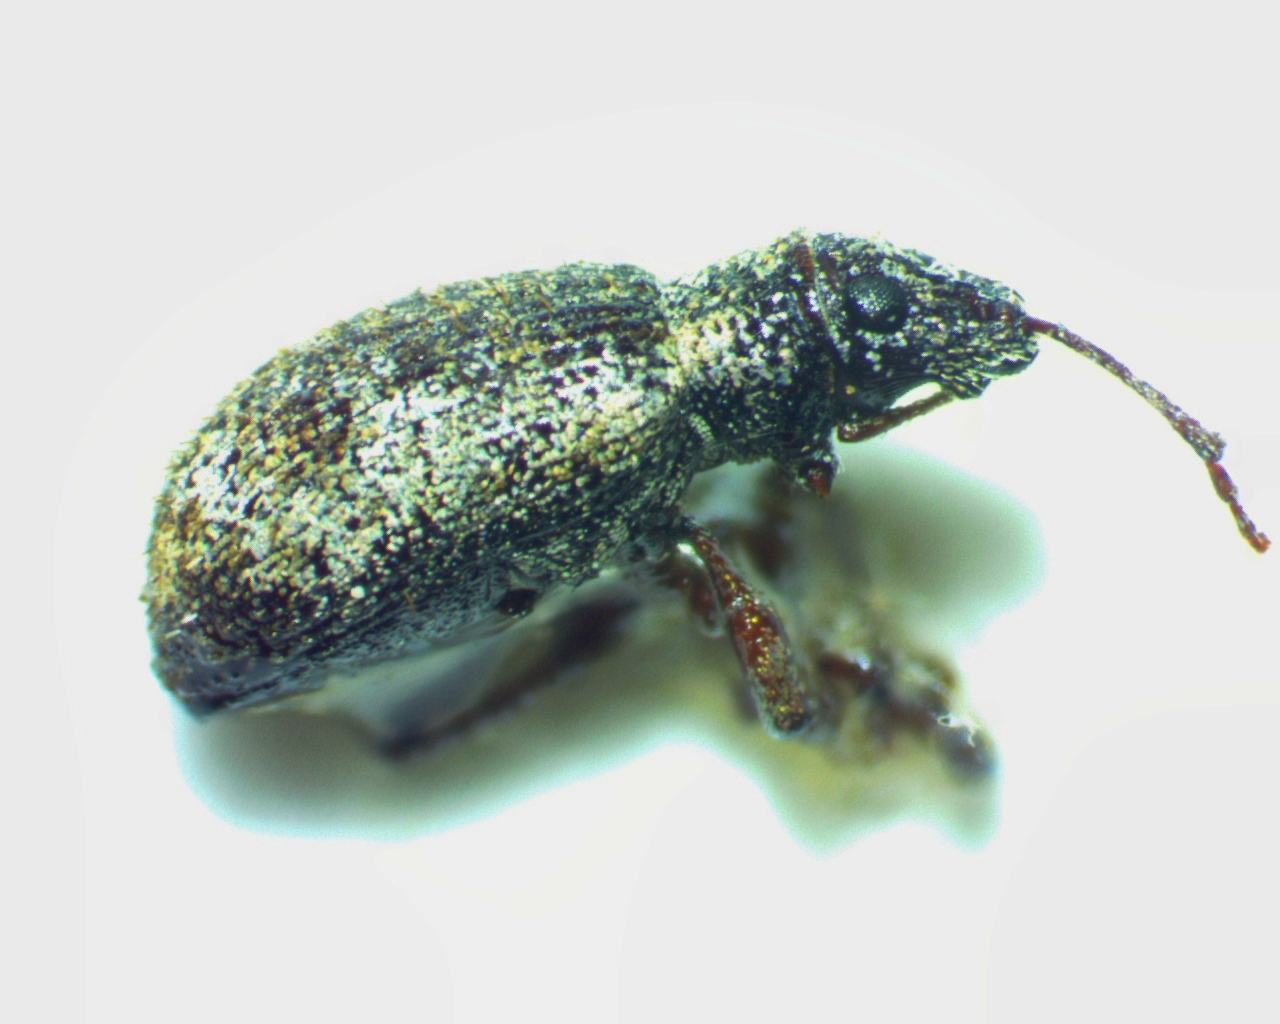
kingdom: Animalia
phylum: Arthropoda
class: Insecta
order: Coleoptera
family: Curculionidae
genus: Pseudoedophrys
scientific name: Pseudoedophrys hilleri
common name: Weevil
